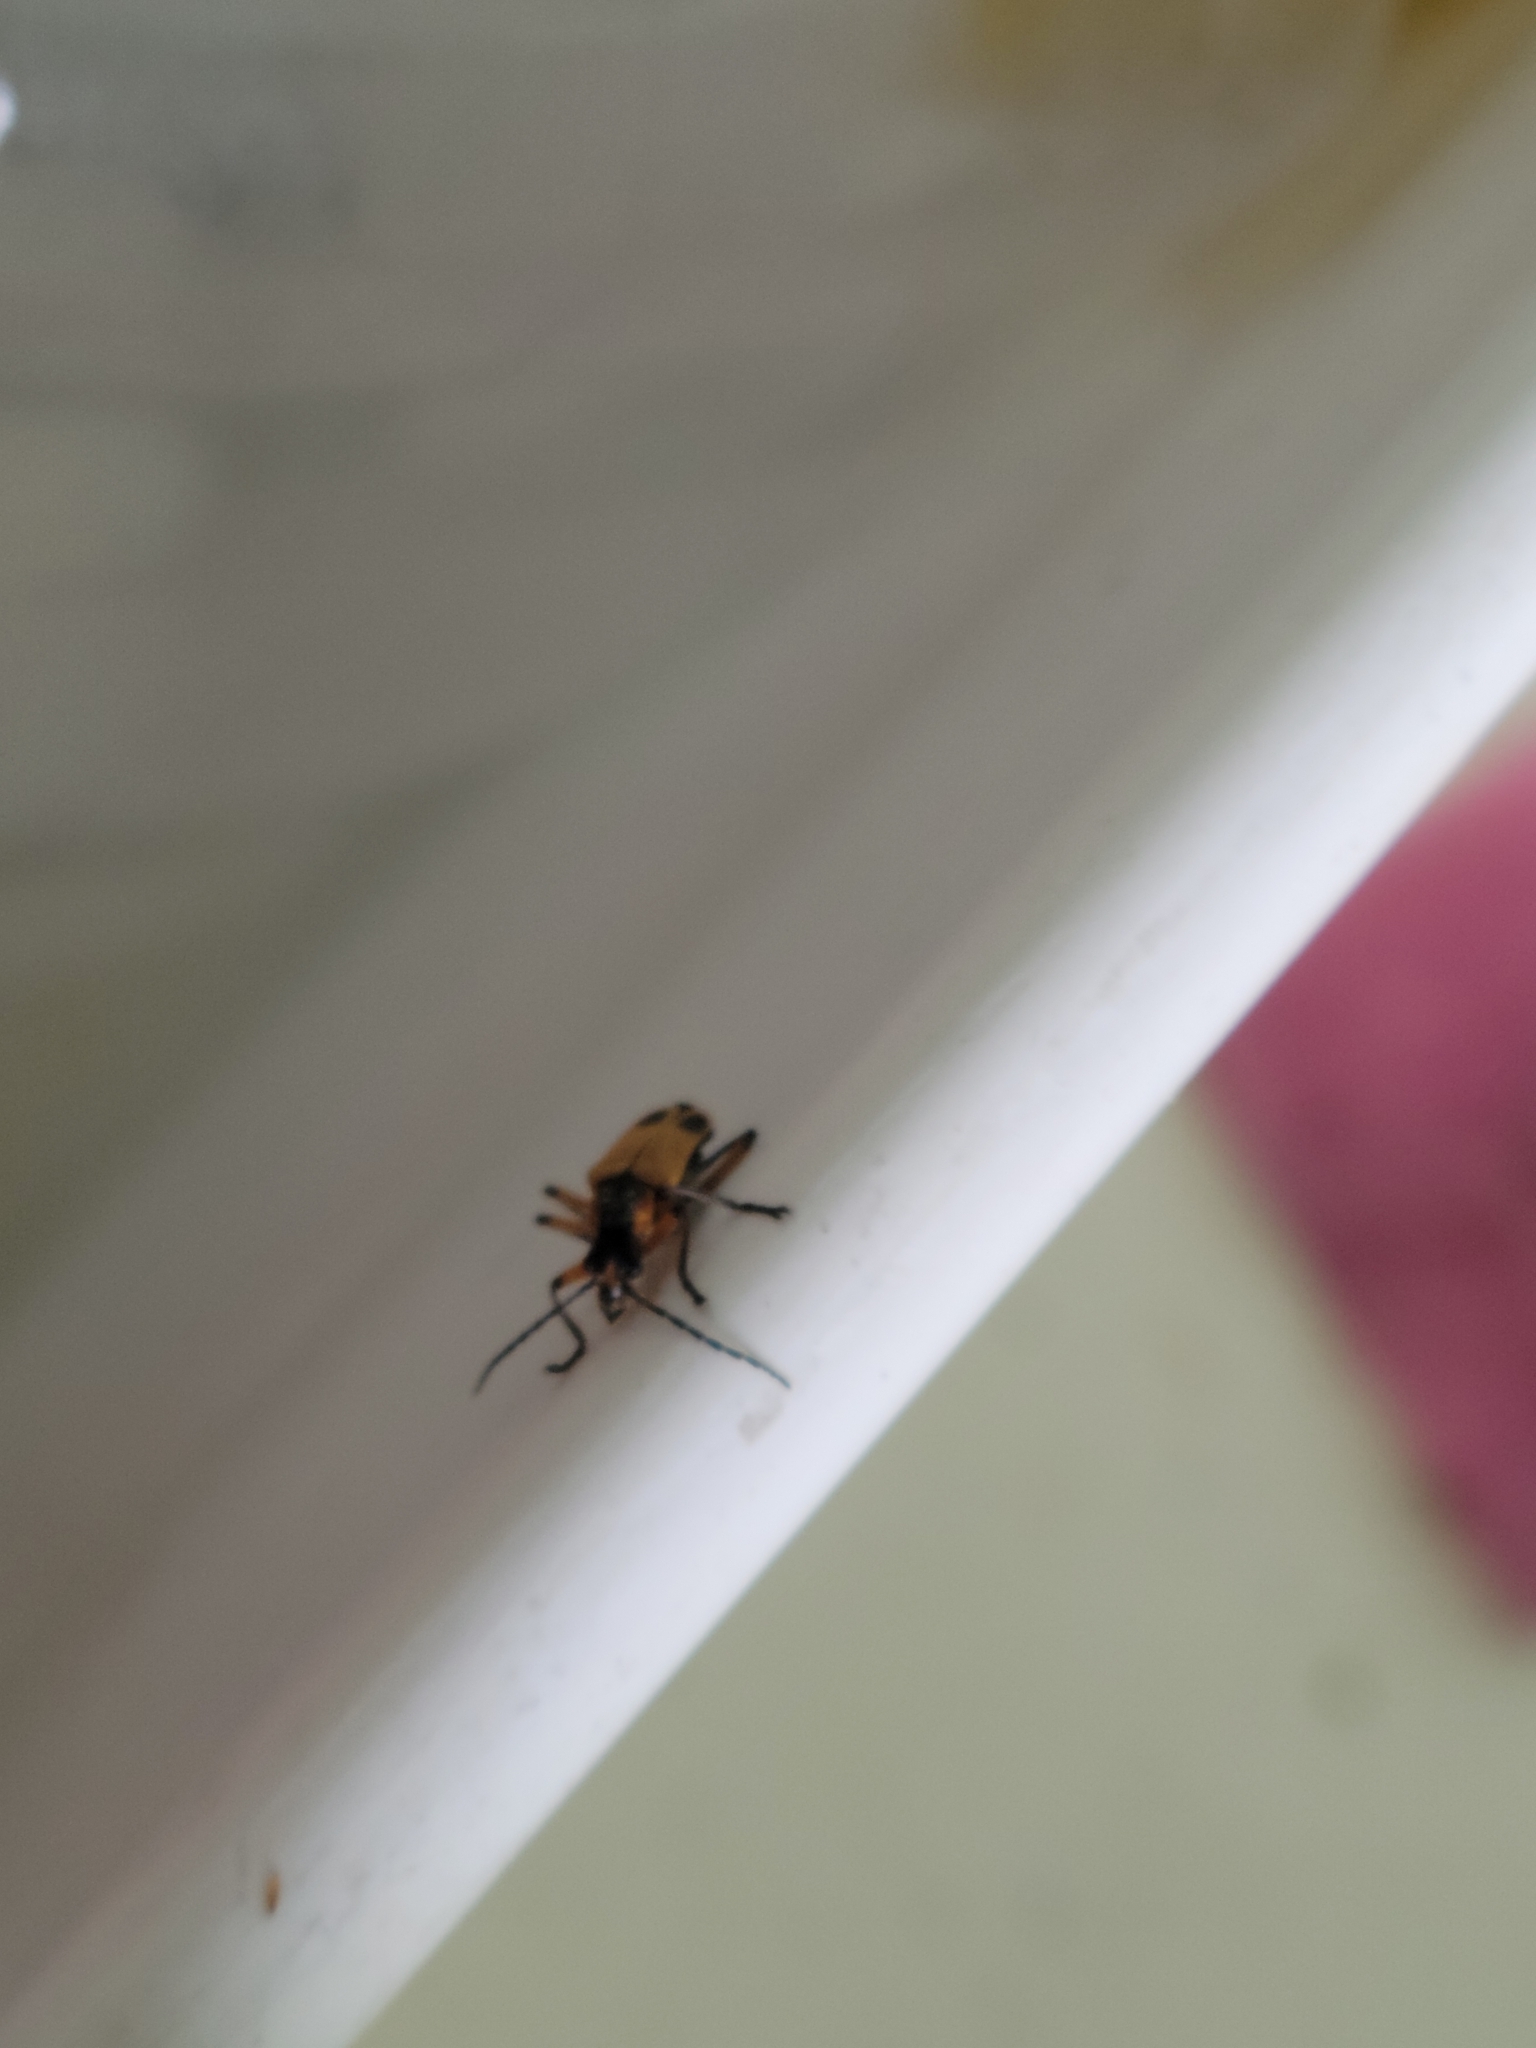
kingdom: Animalia
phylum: Arthropoda
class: Insecta
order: Coleoptera
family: Cantharidae
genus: Chauliognathus
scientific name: Chauliognathus marginatus
